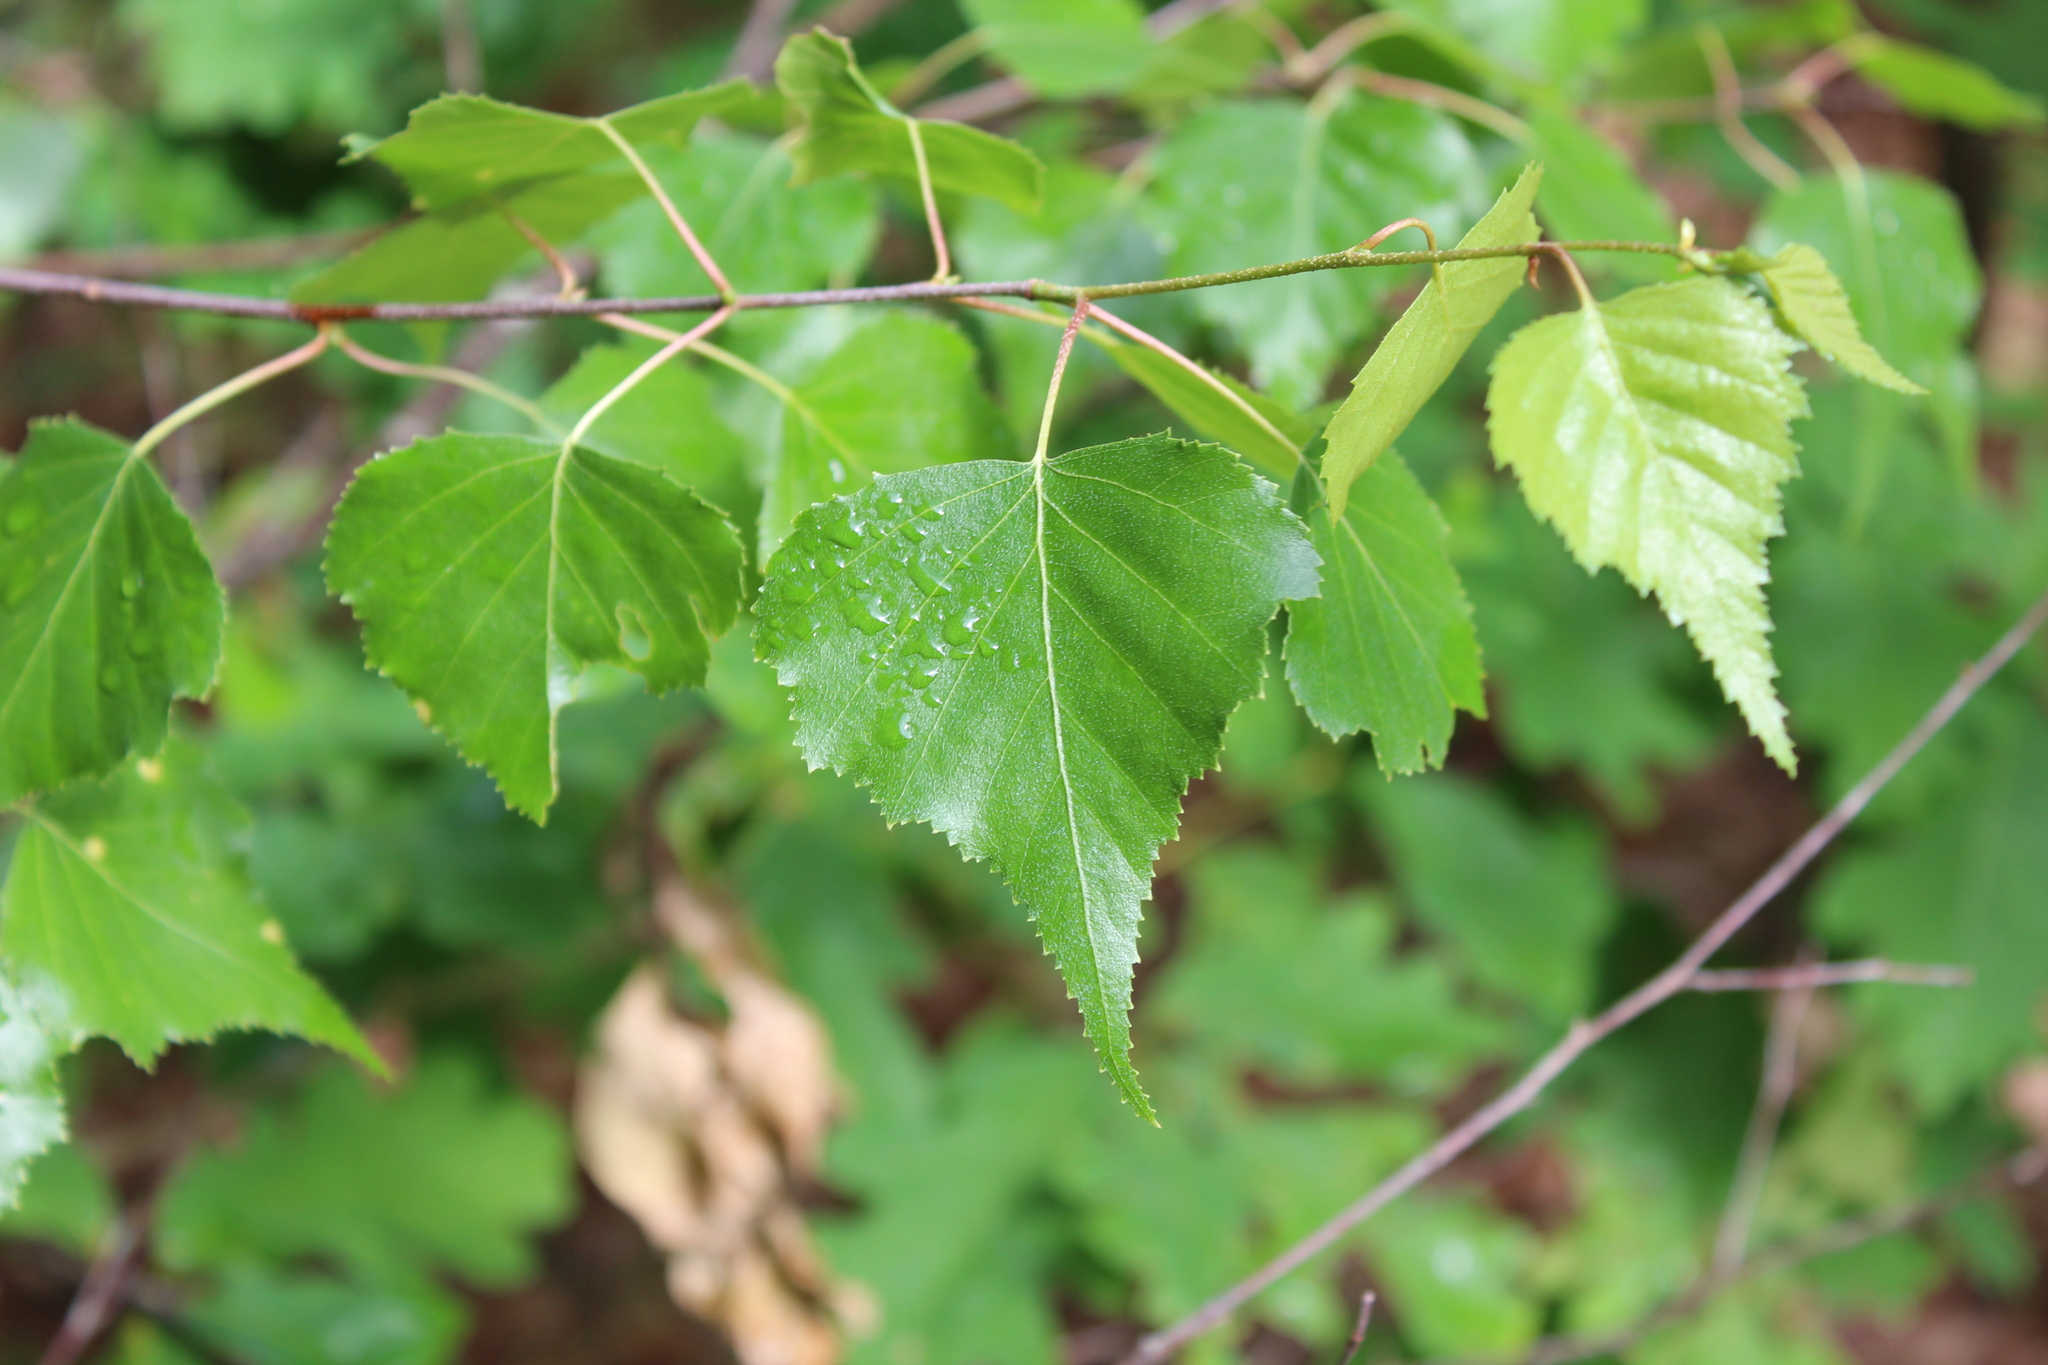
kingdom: Plantae
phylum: Tracheophyta
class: Magnoliopsida
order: Fagales
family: Betulaceae
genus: Betula
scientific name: Betula populifolia
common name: Fire birch
